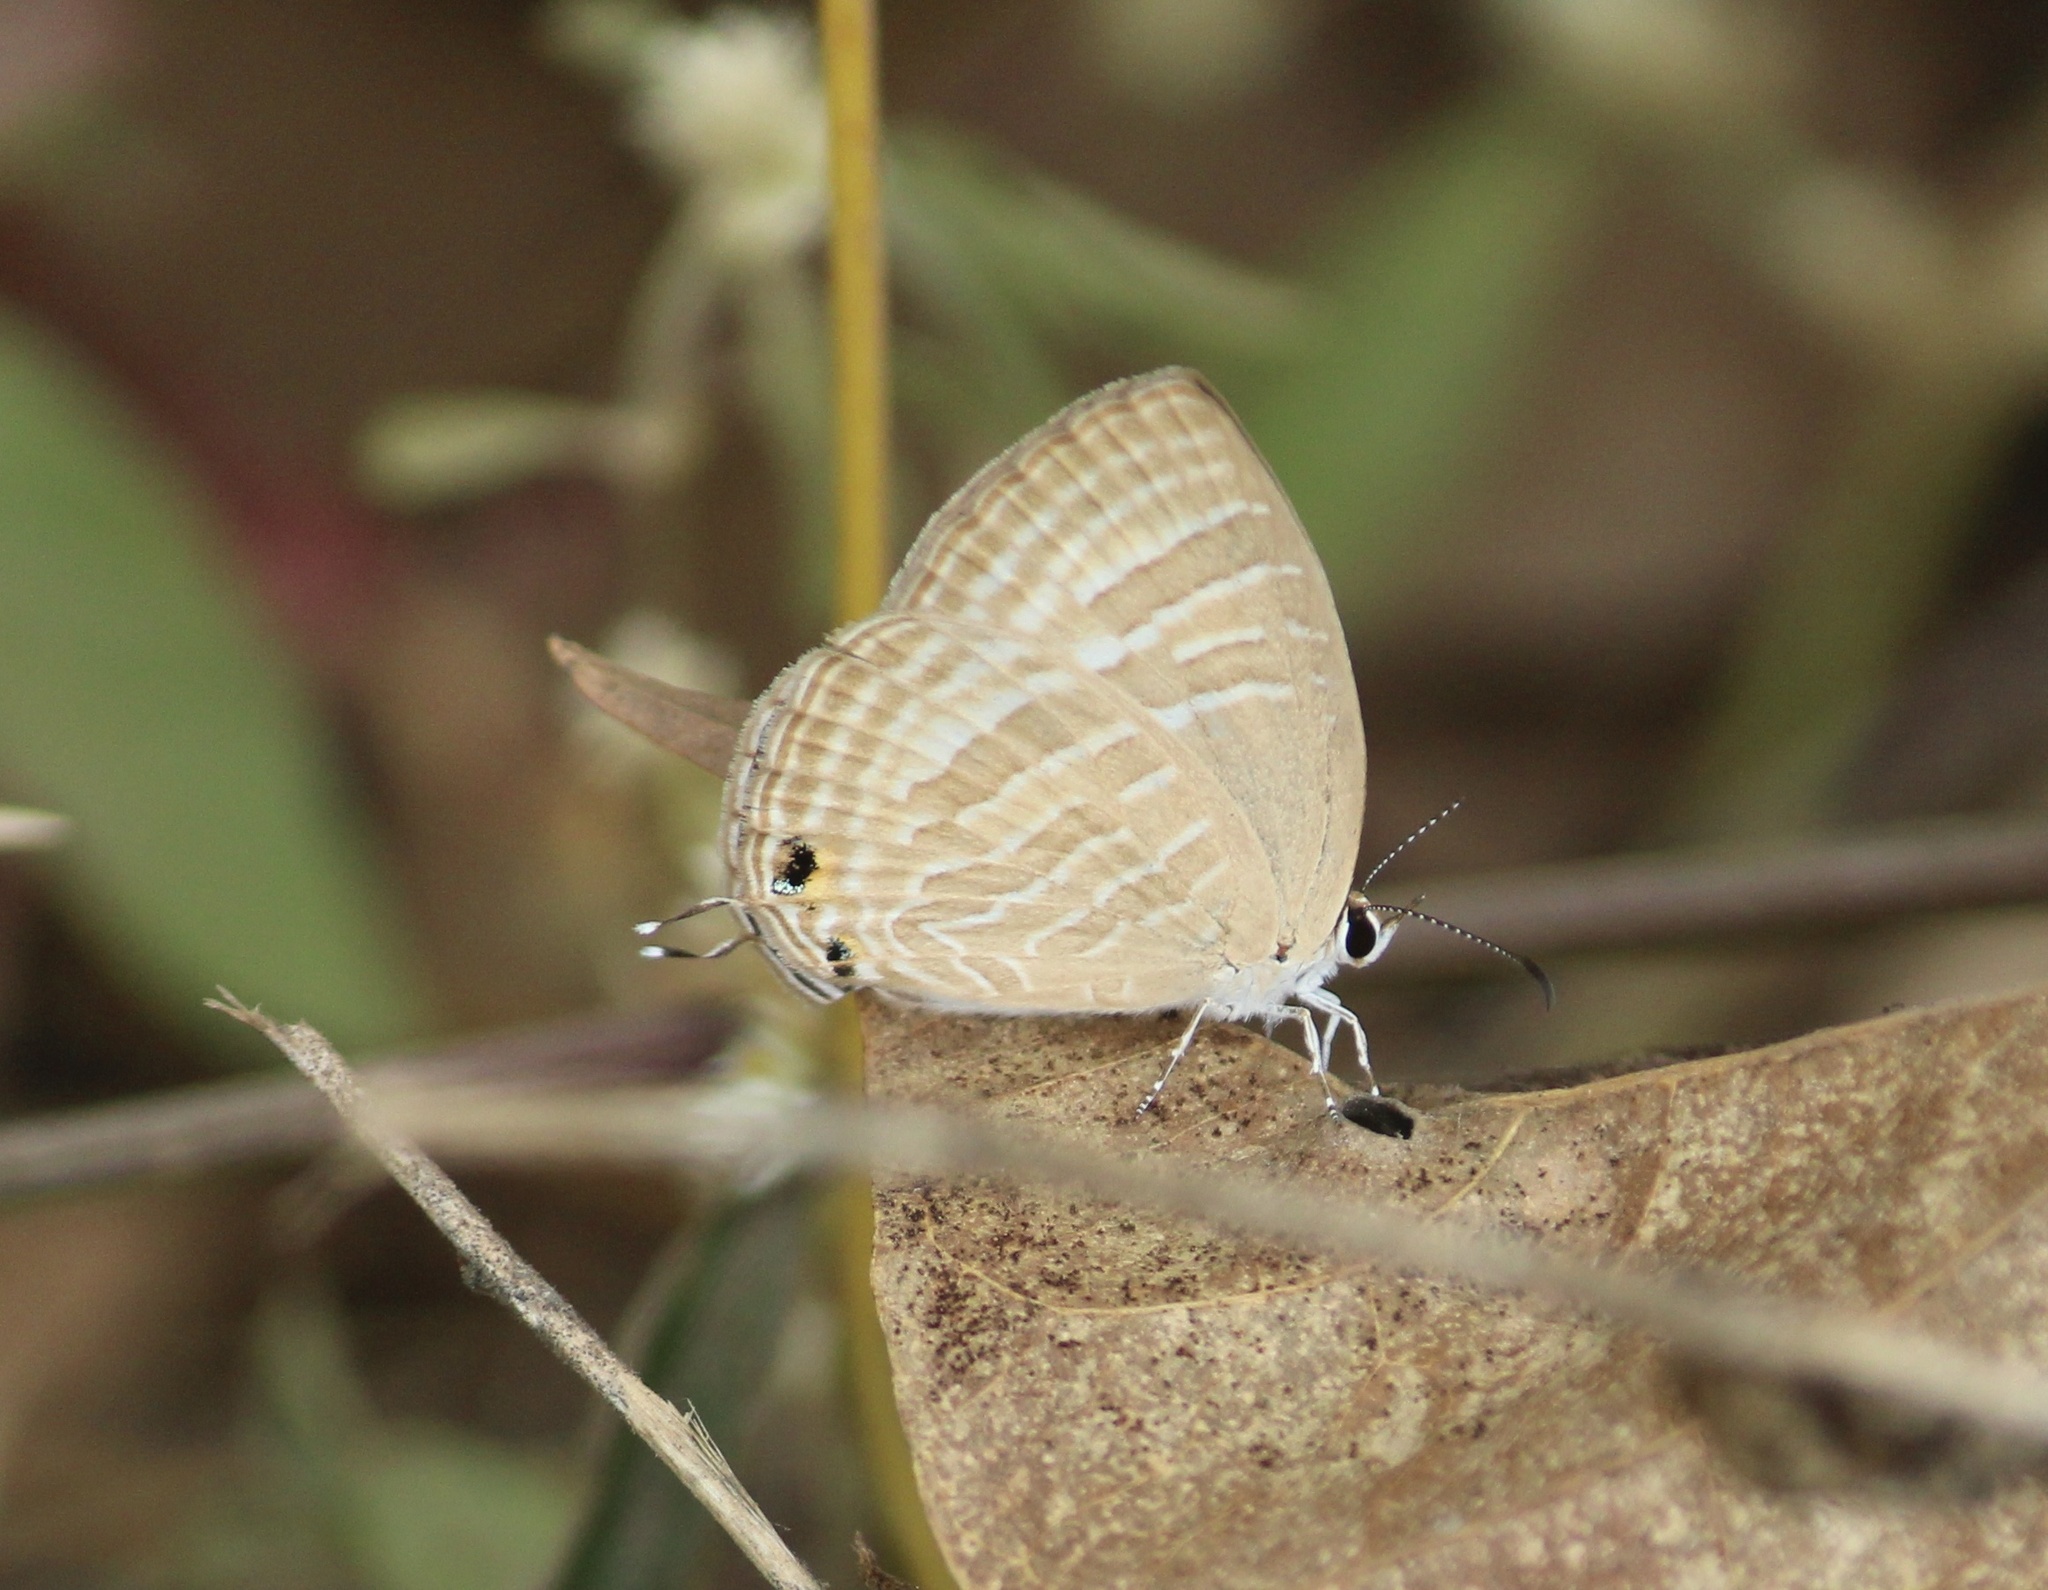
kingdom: Animalia
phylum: Arthropoda
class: Insecta
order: Lepidoptera
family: Lycaenidae
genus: Jamides
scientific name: Jamides celeno
